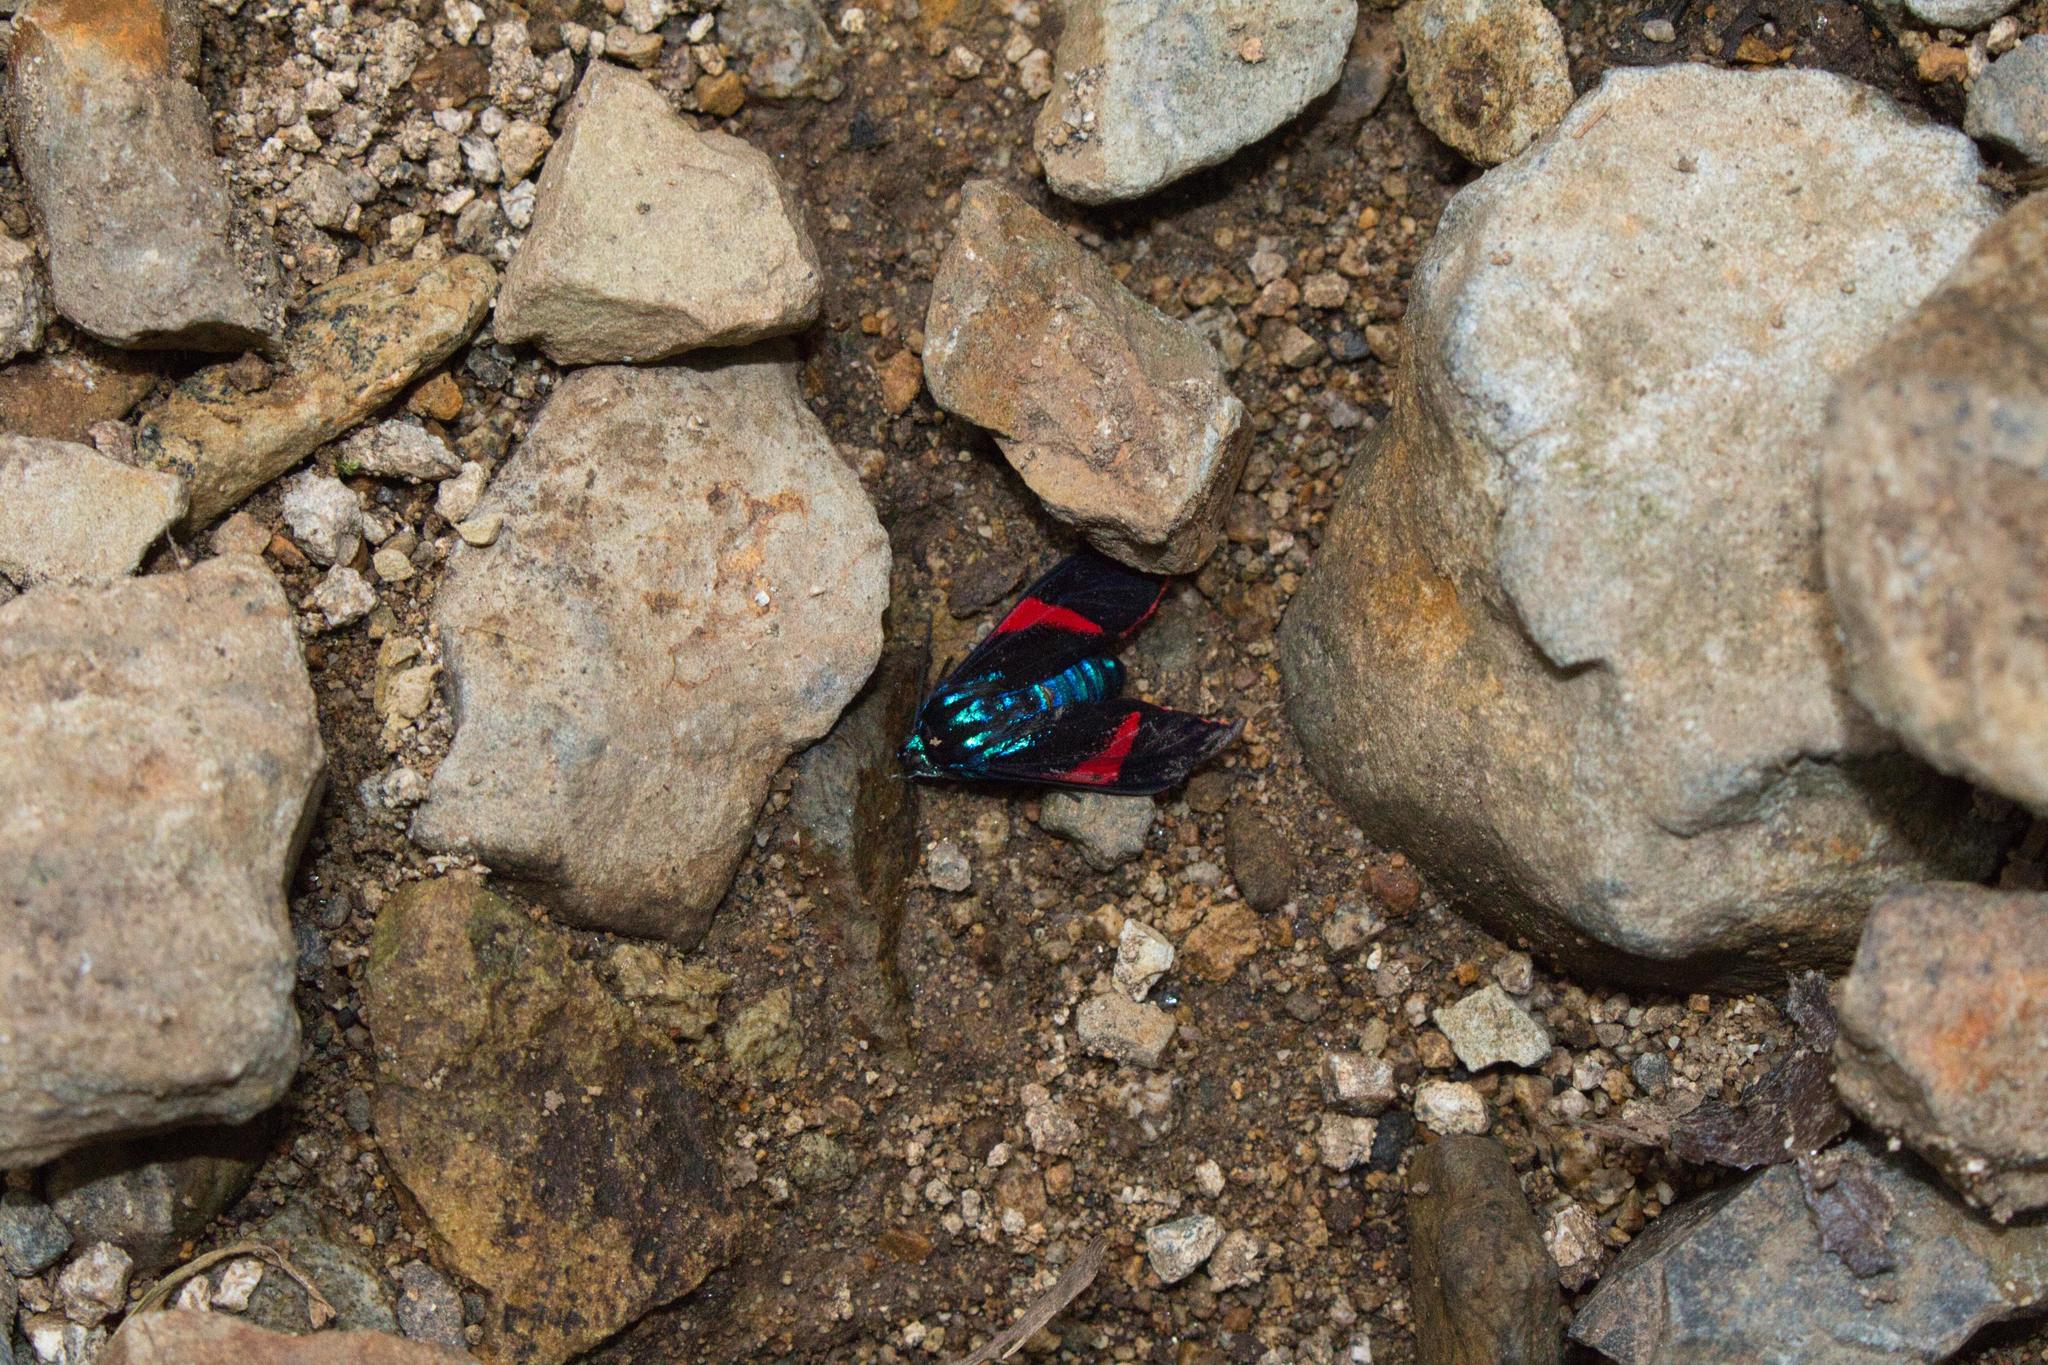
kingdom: Animalia
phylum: Arthropoda
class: Insecta
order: Lepidoptera
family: Erebidae
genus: Cyanopepla
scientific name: Cyanopepla scintillans
